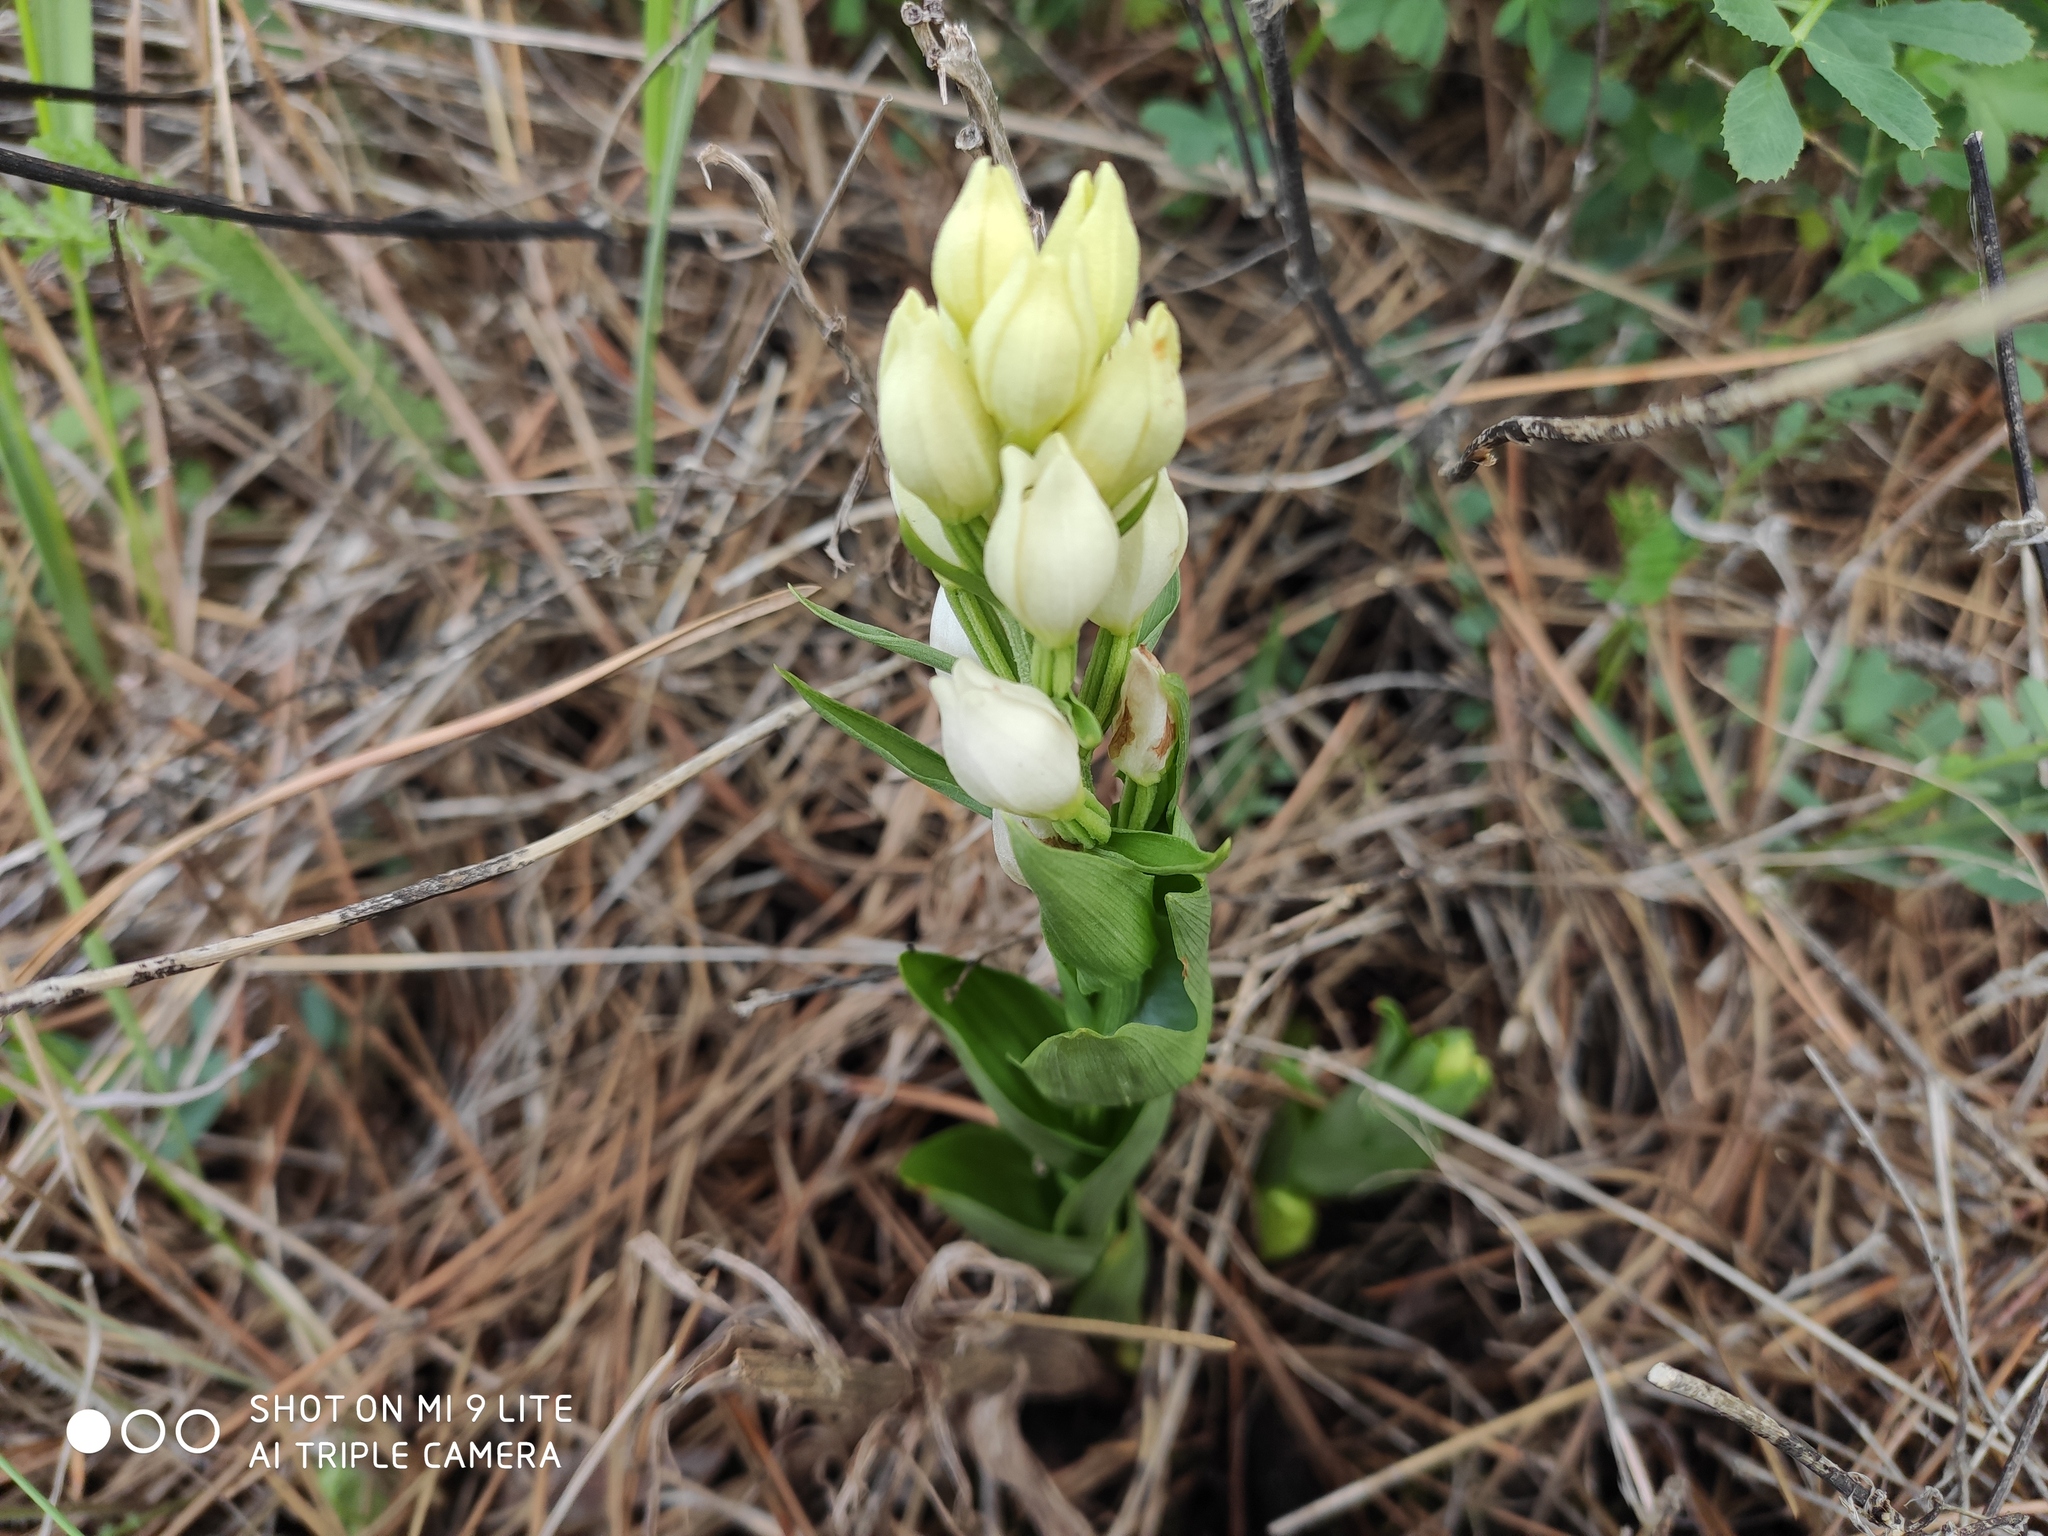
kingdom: Plantae
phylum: Tracheophyta
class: Liliopsida
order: Asparagales
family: Orchidaceae
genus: Cephalanthera
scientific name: Cephalanthera damasonium
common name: White helleborine
